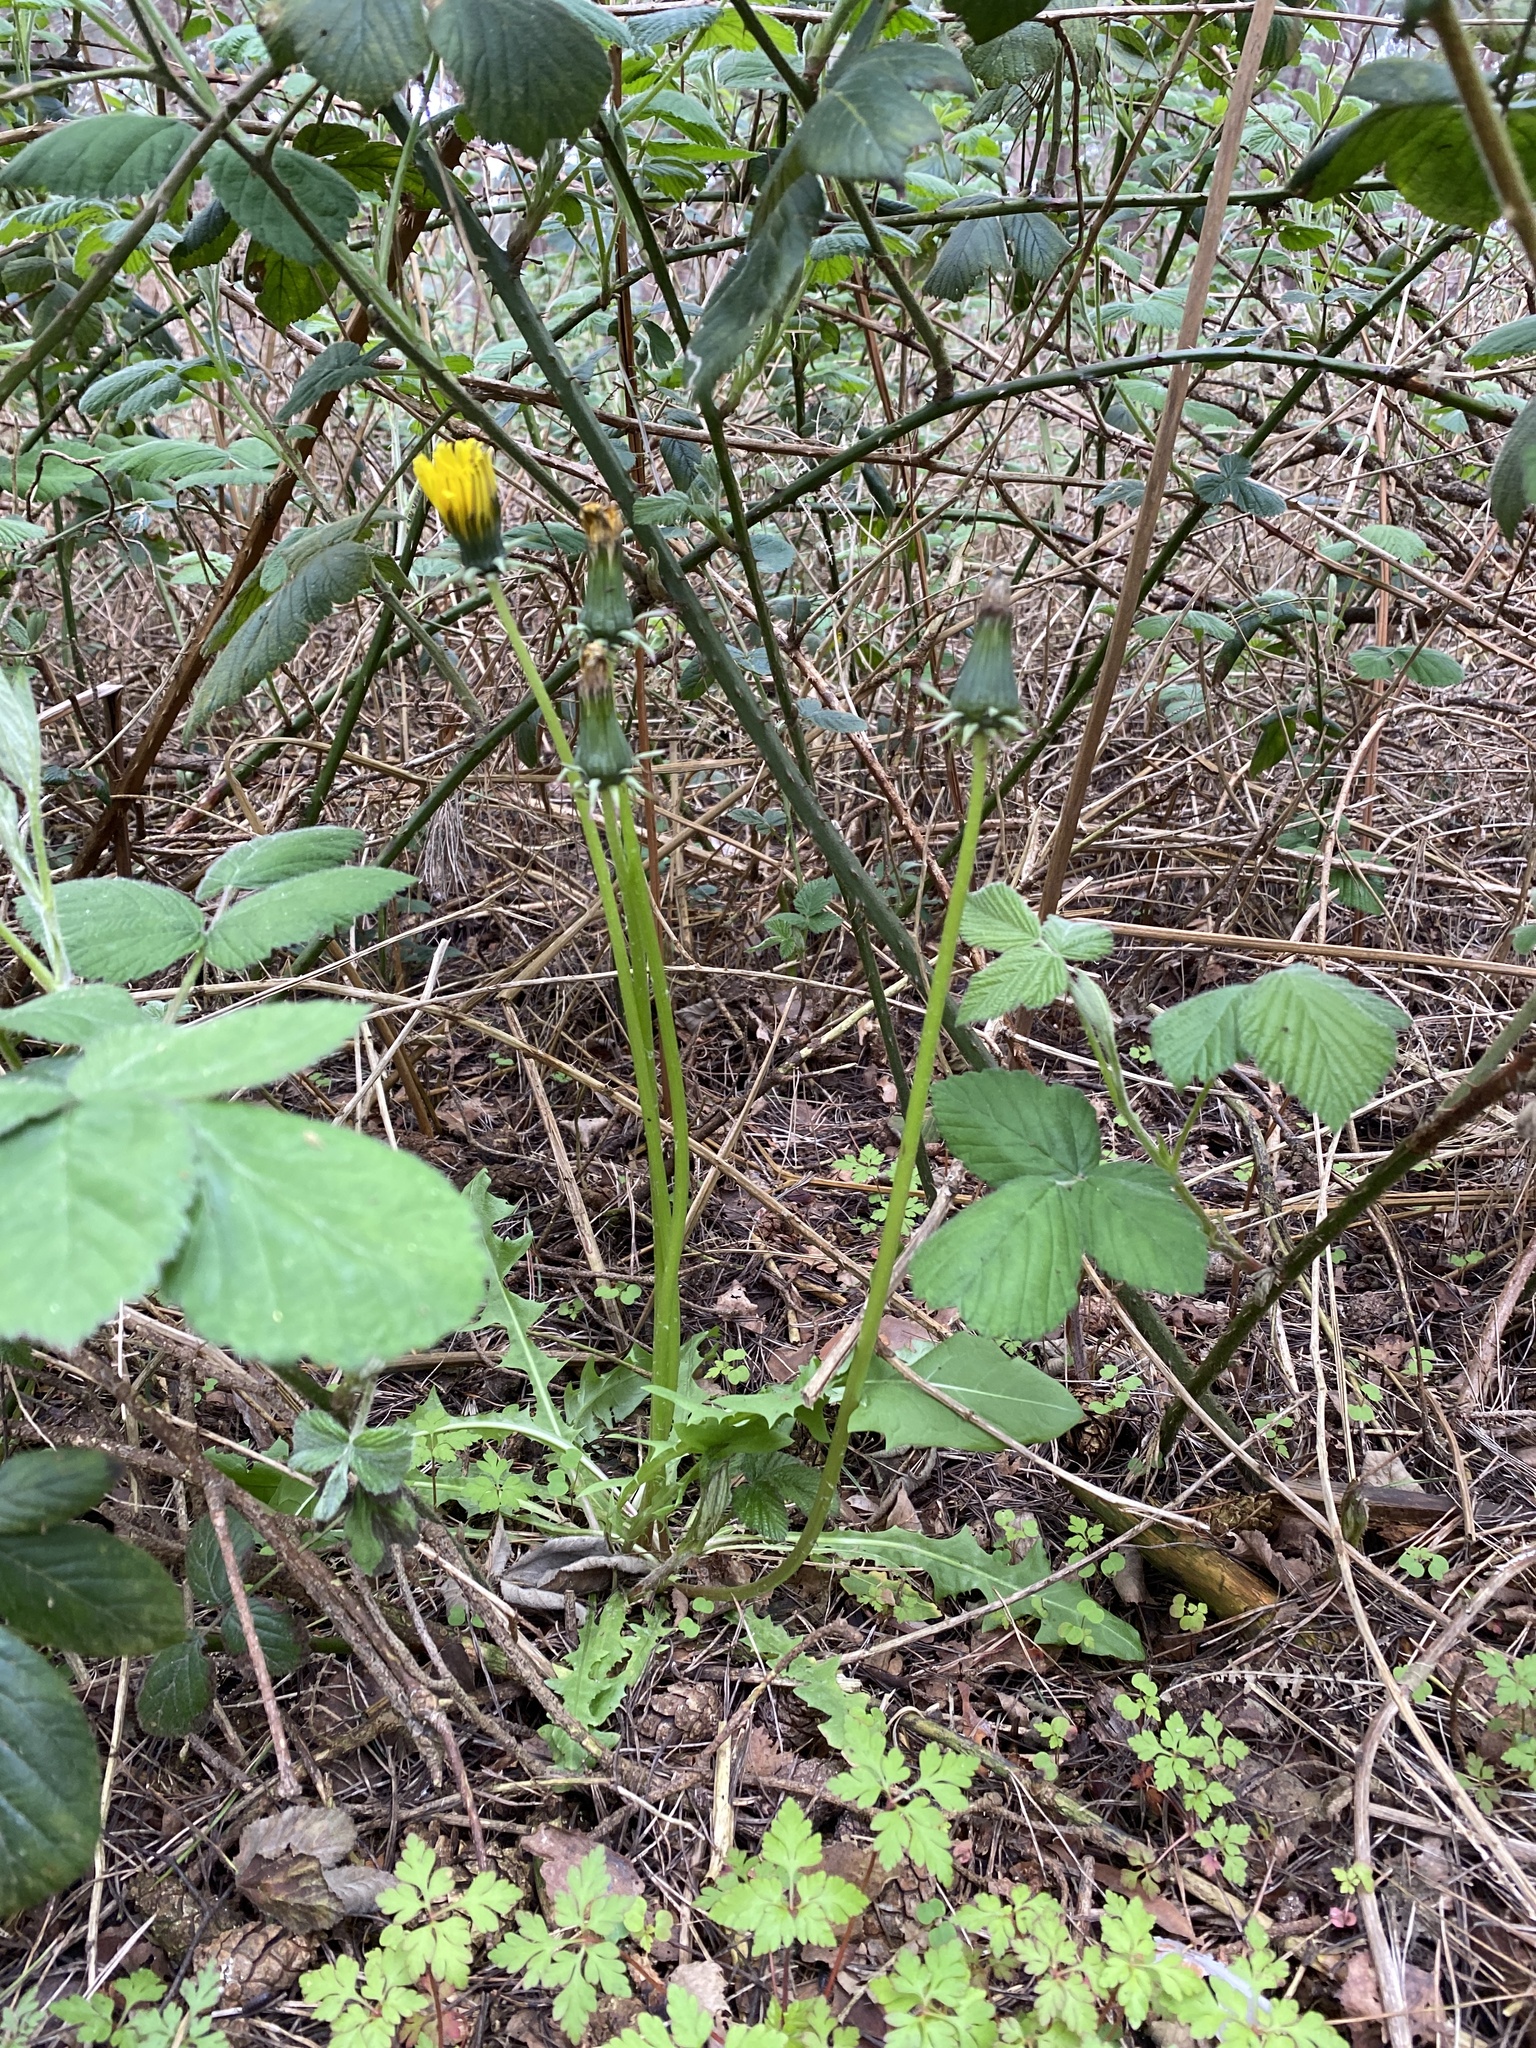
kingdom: Plantae
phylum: Tracheophyta
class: Magnoliopsida
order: Asterales
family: Asteraceae
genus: Taraxacum
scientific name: Taraxacum officinale
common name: Common dandelion
